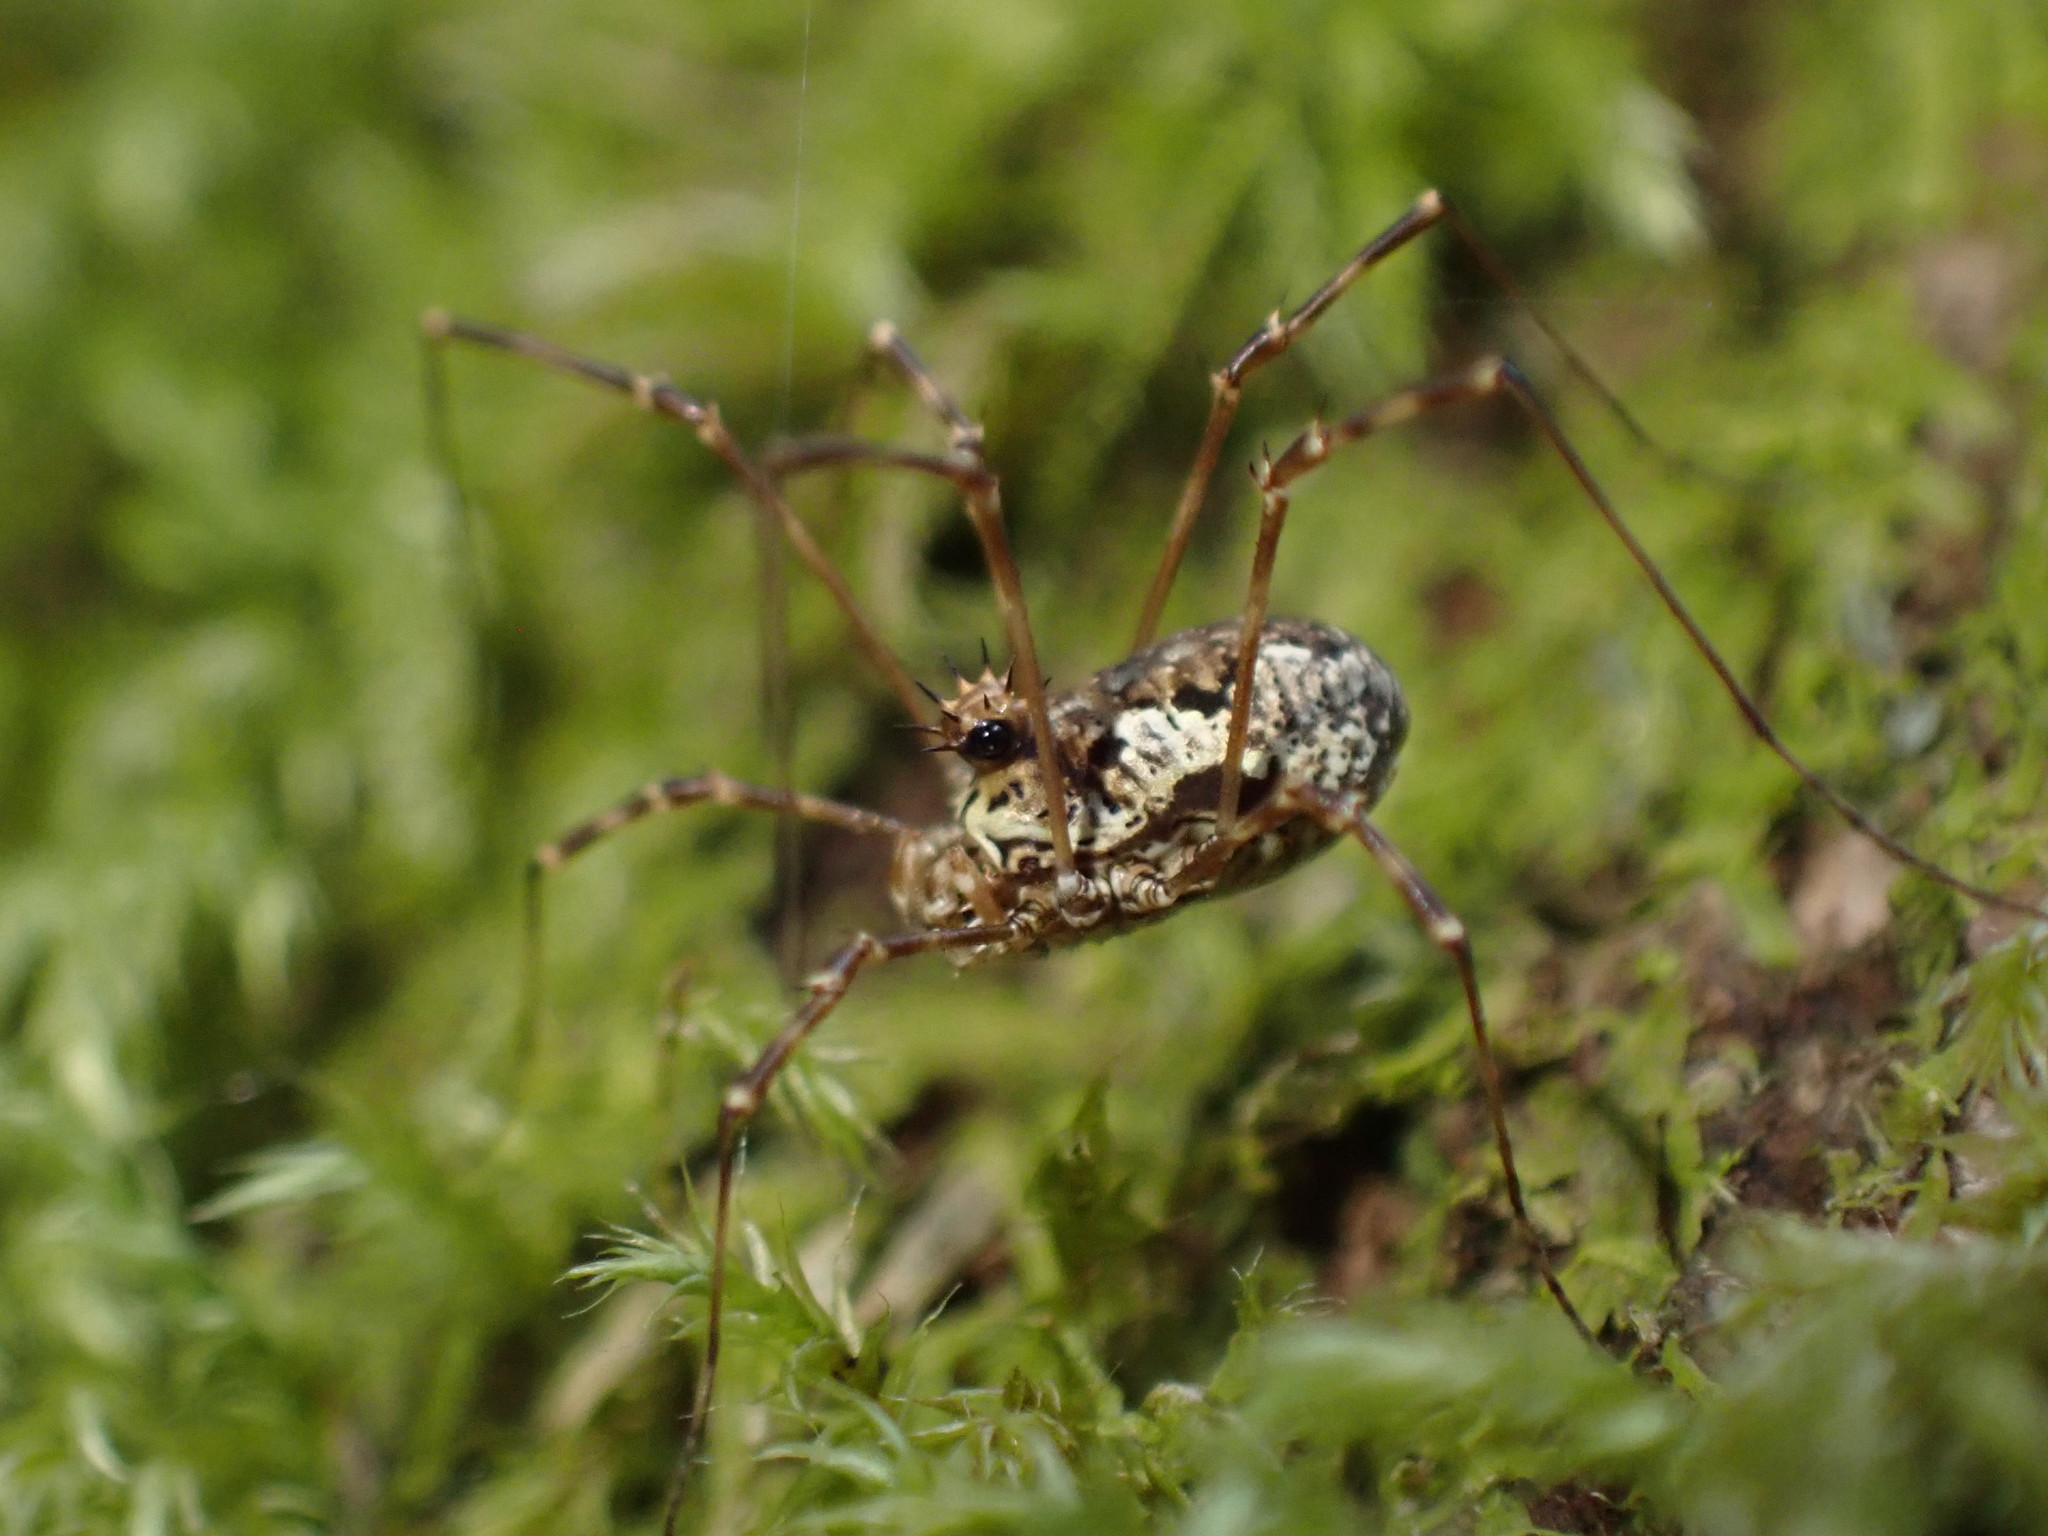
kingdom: Animalia
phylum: Arthropoda
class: Arachnida
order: Opiliones
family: Phalangiidae
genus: Megabunus
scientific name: Megabunus diadema
